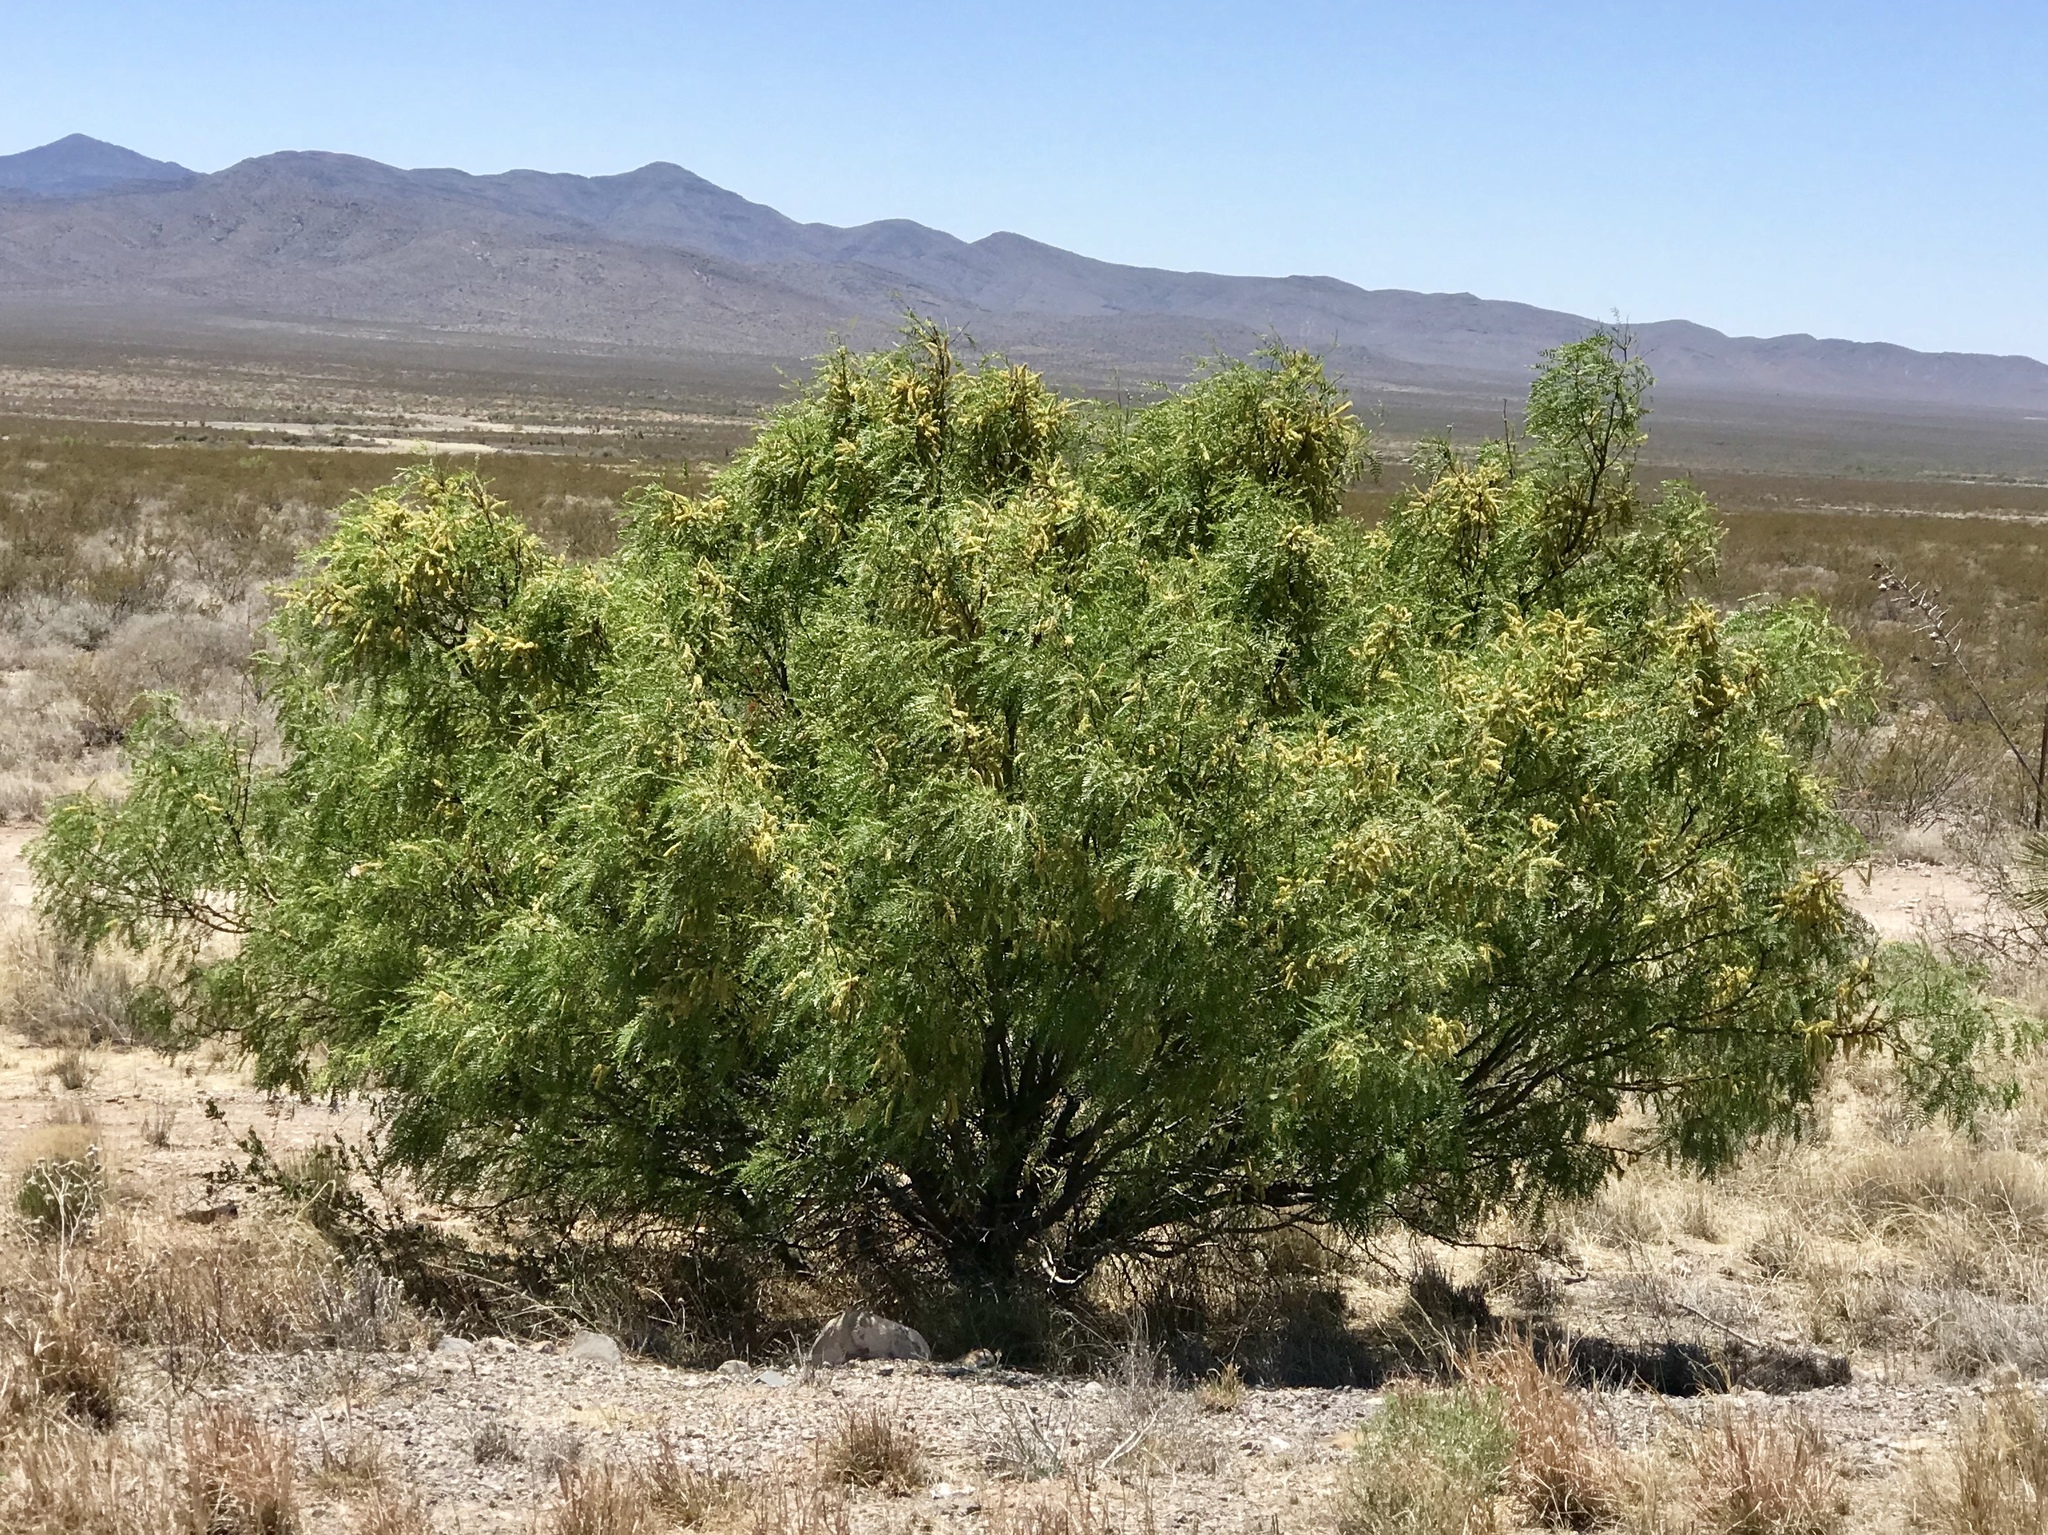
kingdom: Plantae
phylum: Tracheophyta
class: Magnoliopsida
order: Fabales
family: Fabaceae
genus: Prosopis
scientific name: Prosopis glandulosa
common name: Honey mesquite
